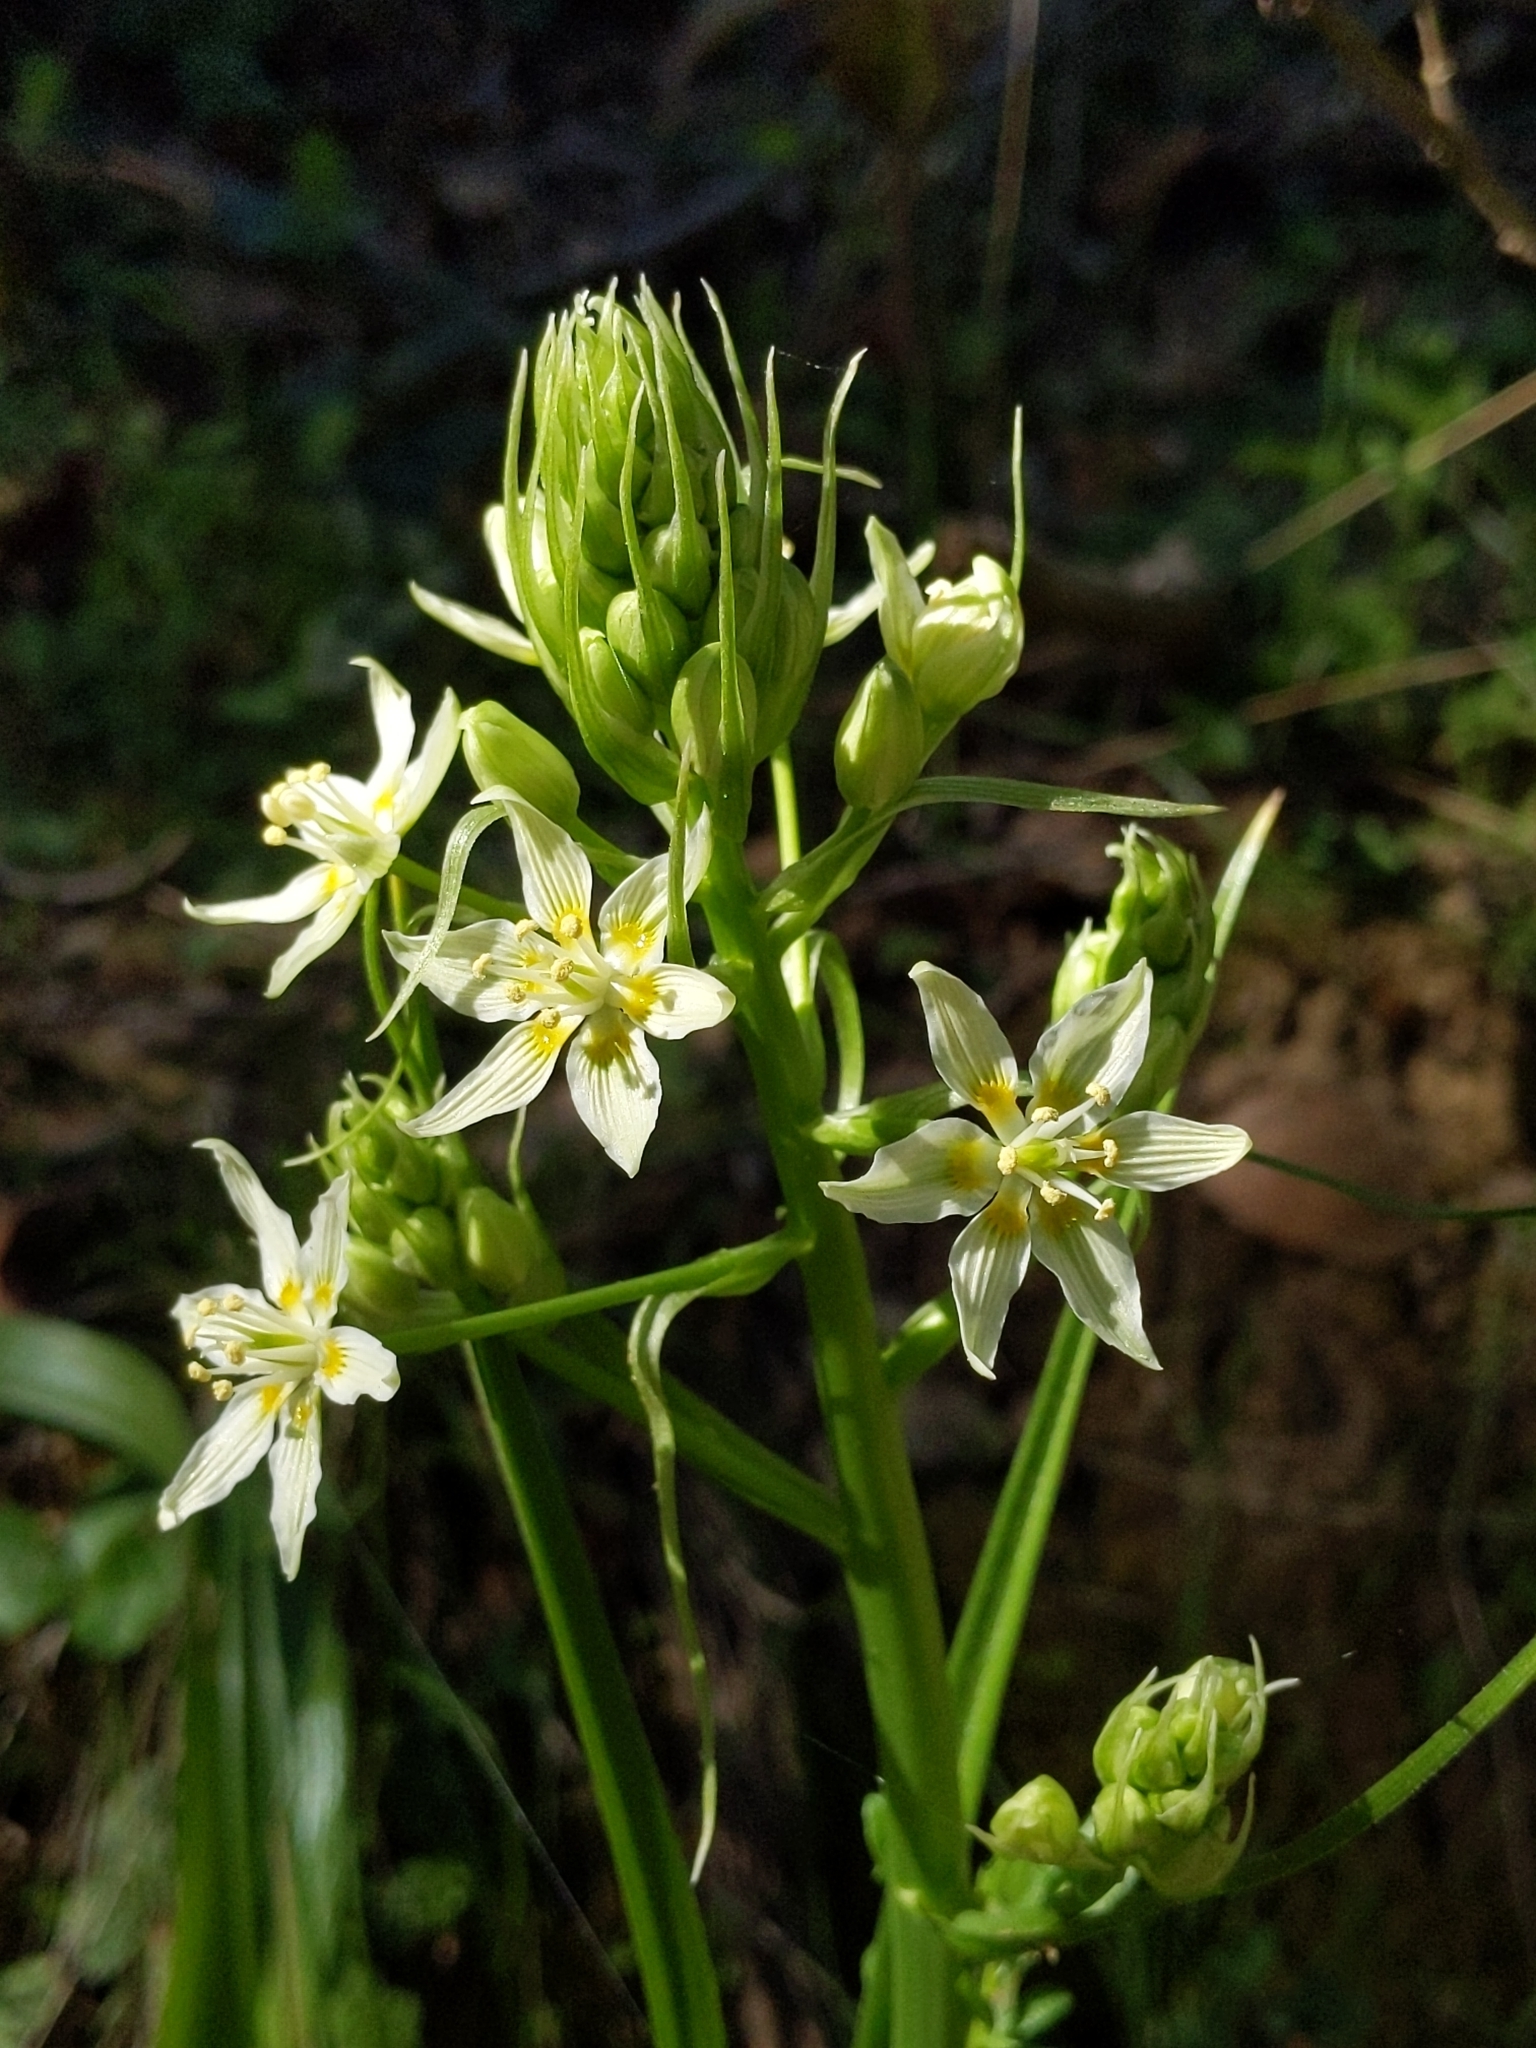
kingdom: Plantae
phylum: Tracheophyta
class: Liliopsida
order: Liliales
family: Melanthiaceae
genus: Toxicoscordion
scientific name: Toxicoscordion fremontii
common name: Fremont's death camas
